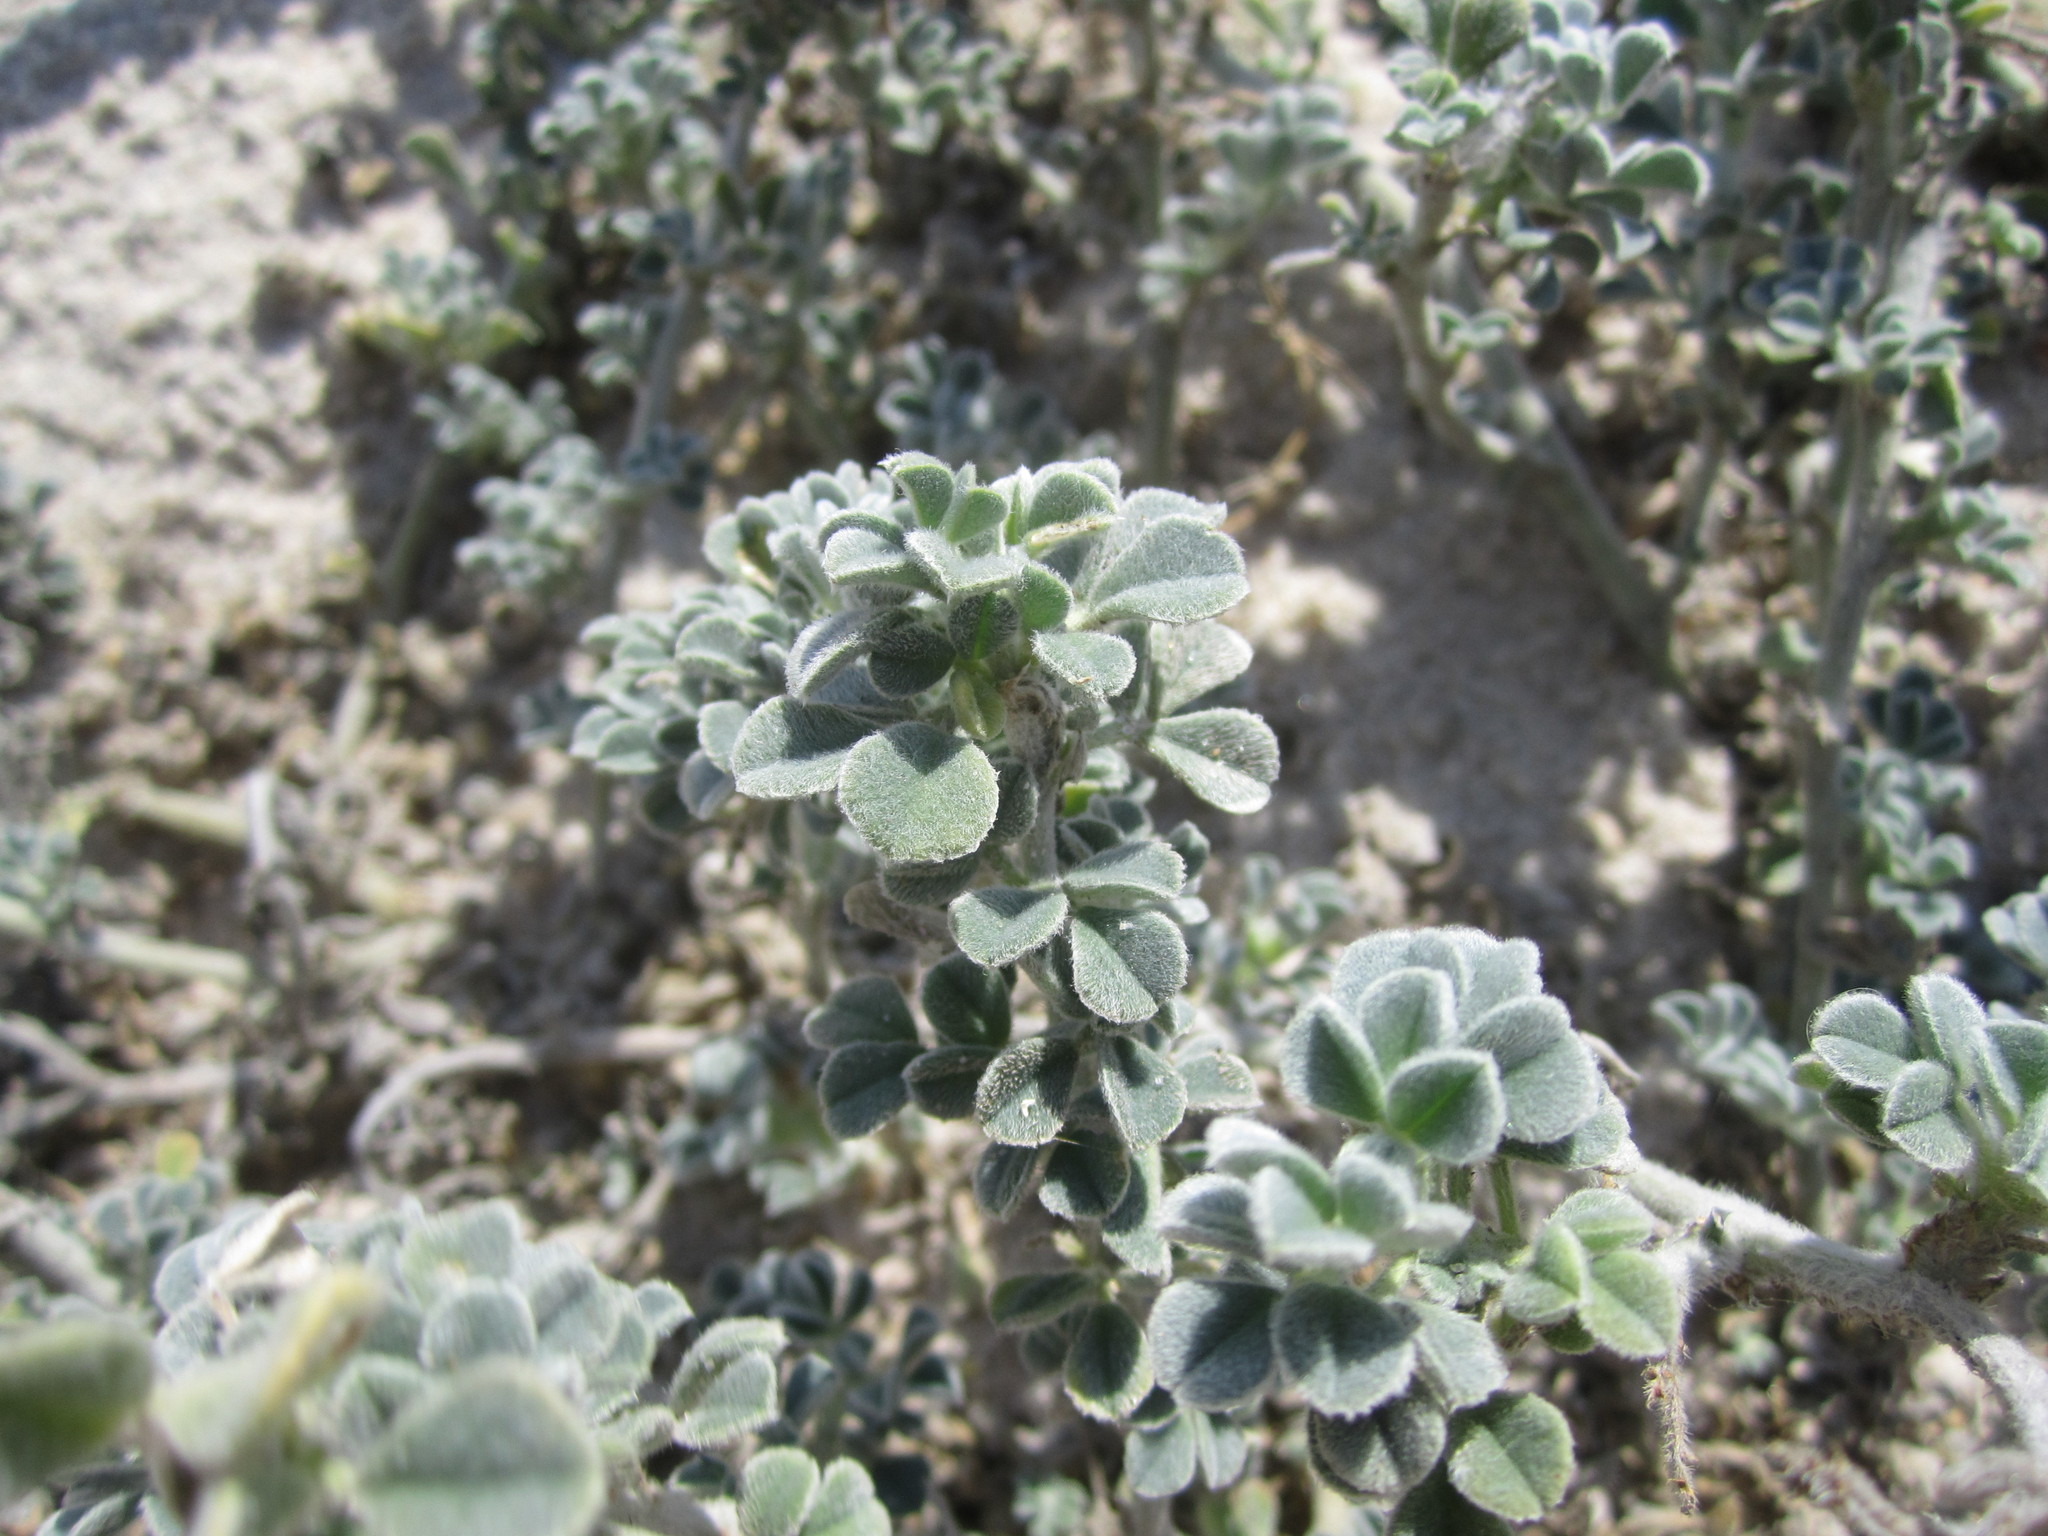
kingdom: Plantae
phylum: Tracheophyta
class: Magnoliopsida
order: Fabales
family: Fabaceae
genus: Medicago
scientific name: Medicago marina
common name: Sea medick
